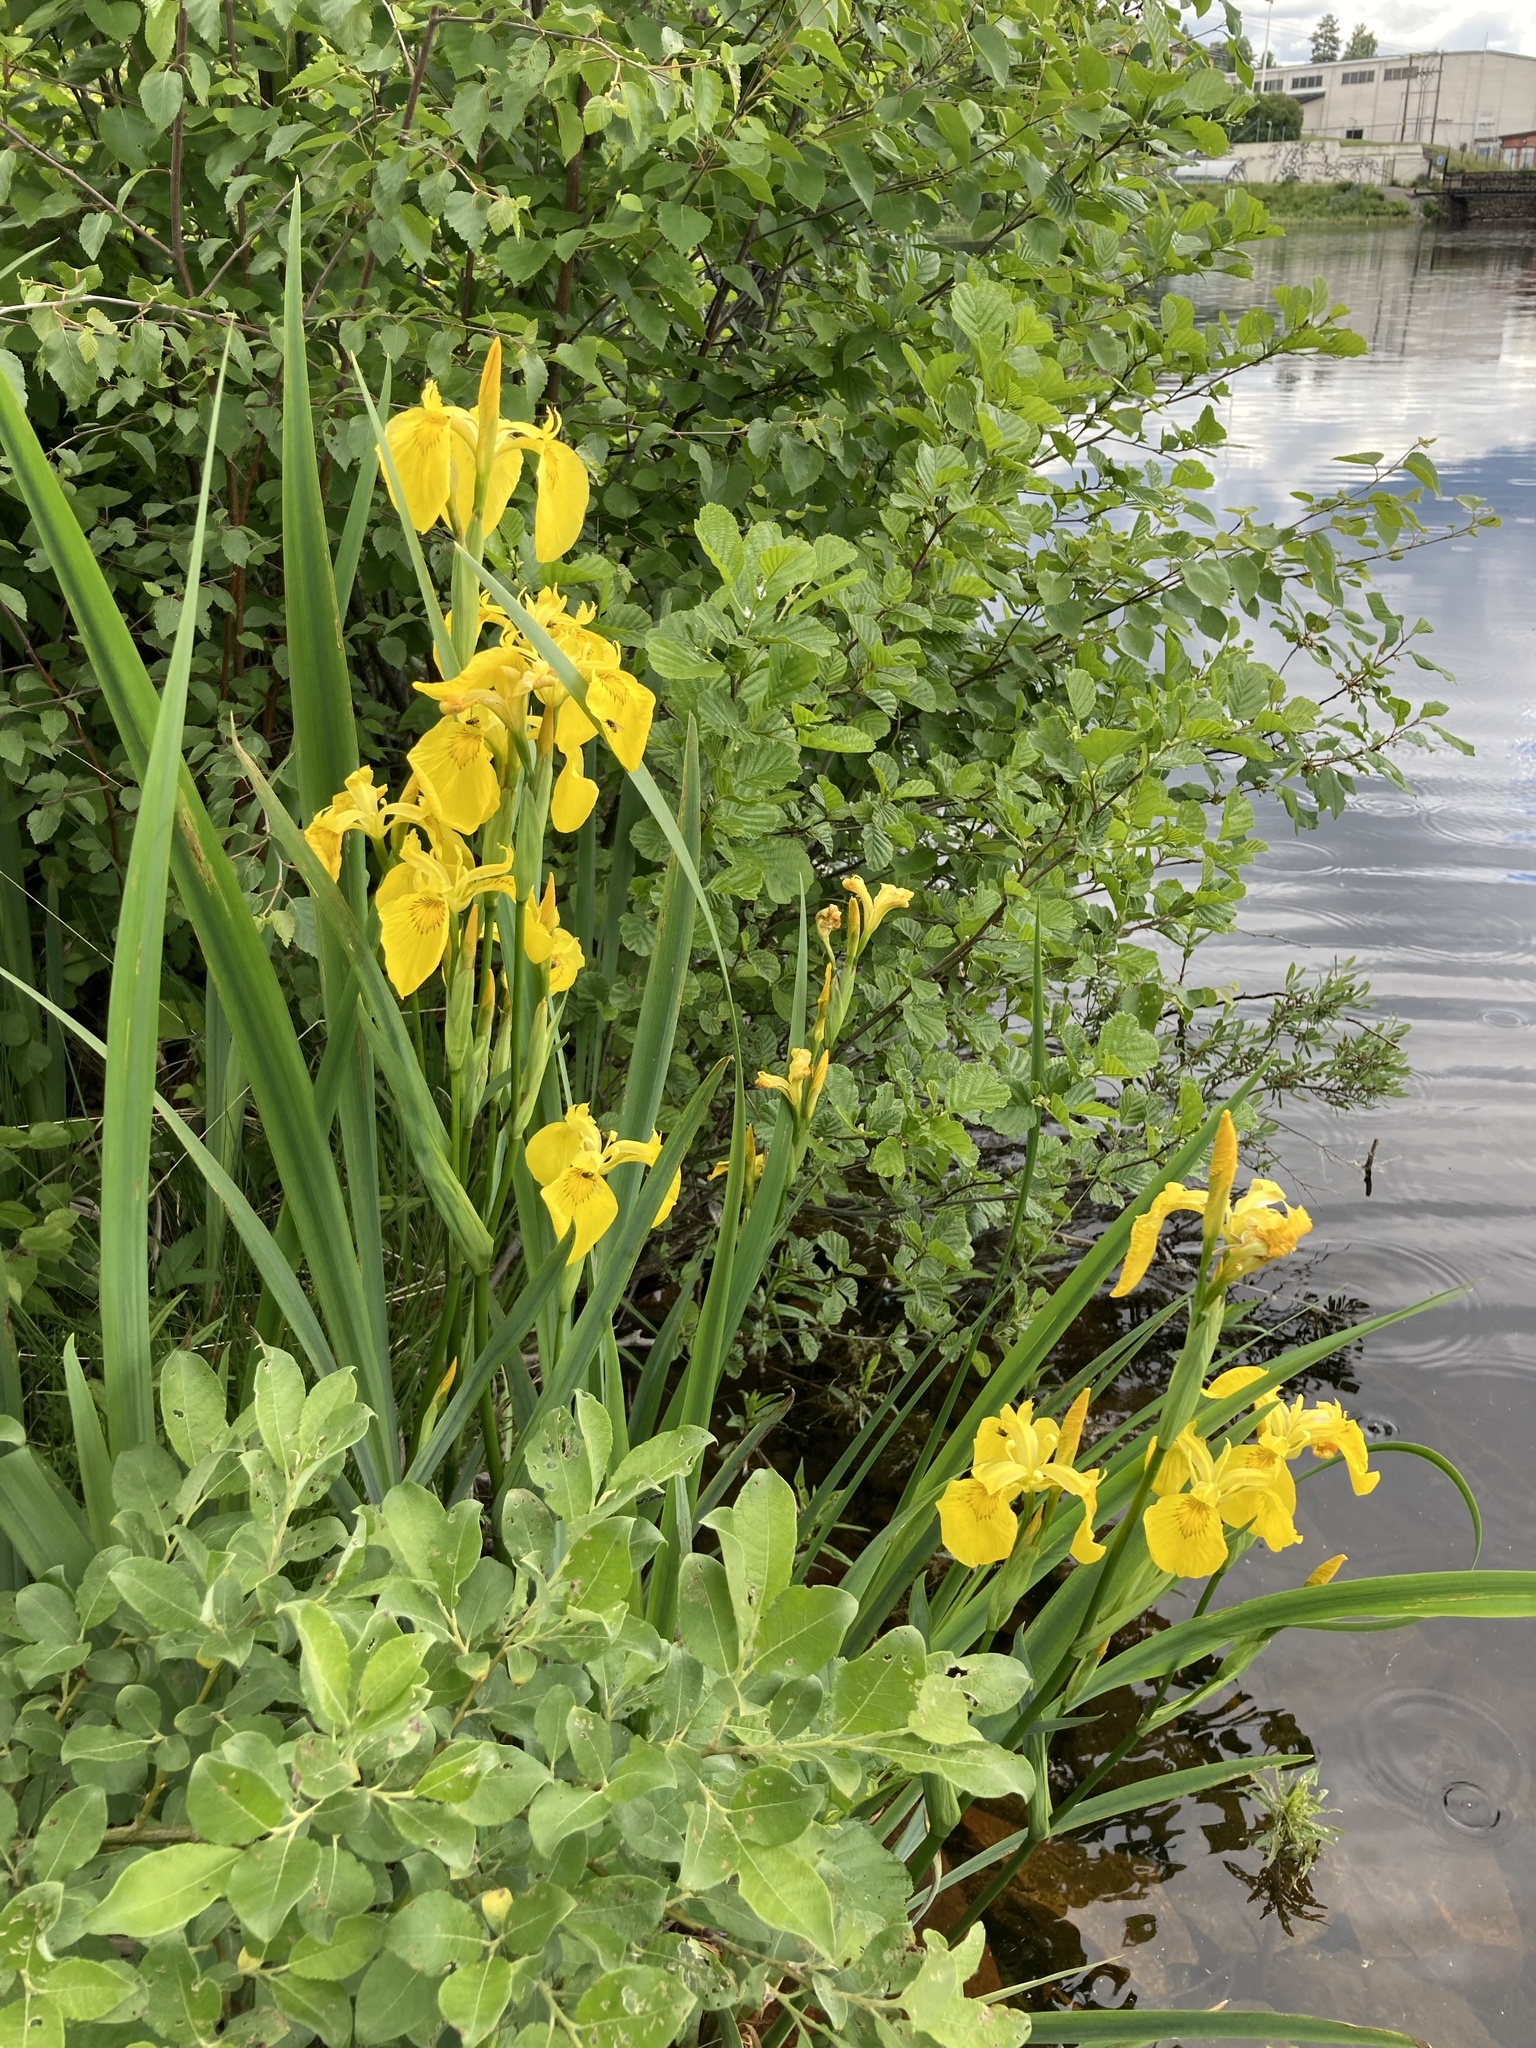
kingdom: Plantae
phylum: Tracheophyta
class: Liliopsida
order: Asparagales
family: Iridaceae
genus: Iris
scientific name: Iris pseudacorus
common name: Yellow flag
